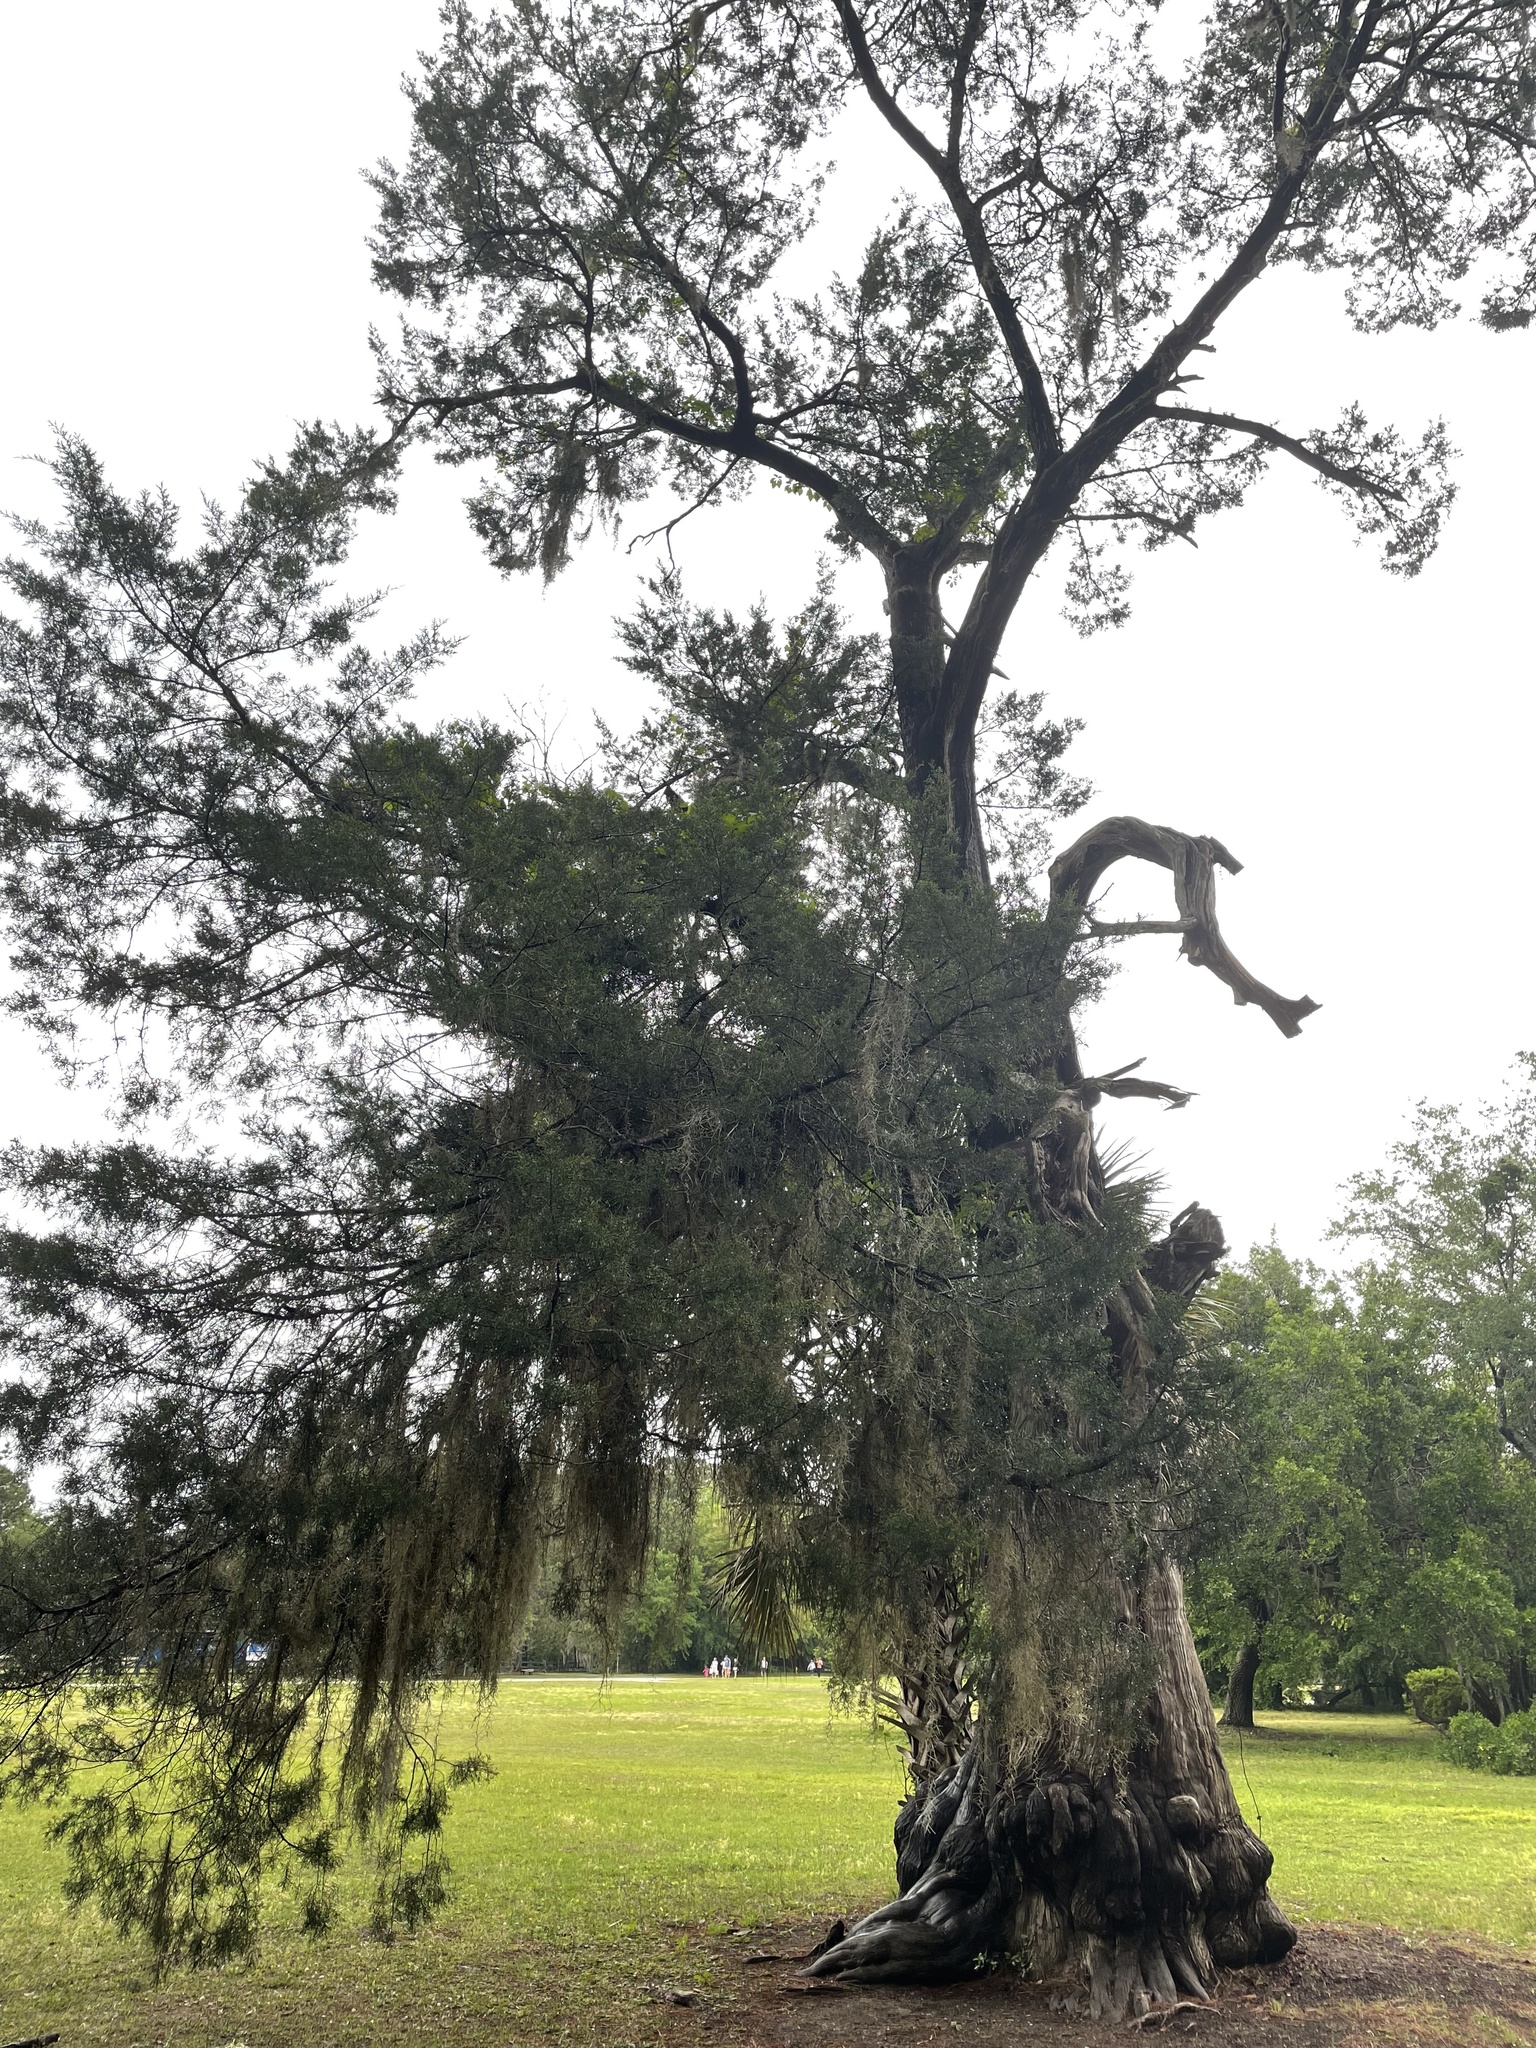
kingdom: Plantae
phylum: Tracheophyta
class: Pinopsida
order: Pinales
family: Cupressaceae
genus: Juniperus
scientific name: Juniperus virginiana
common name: Red juniper
